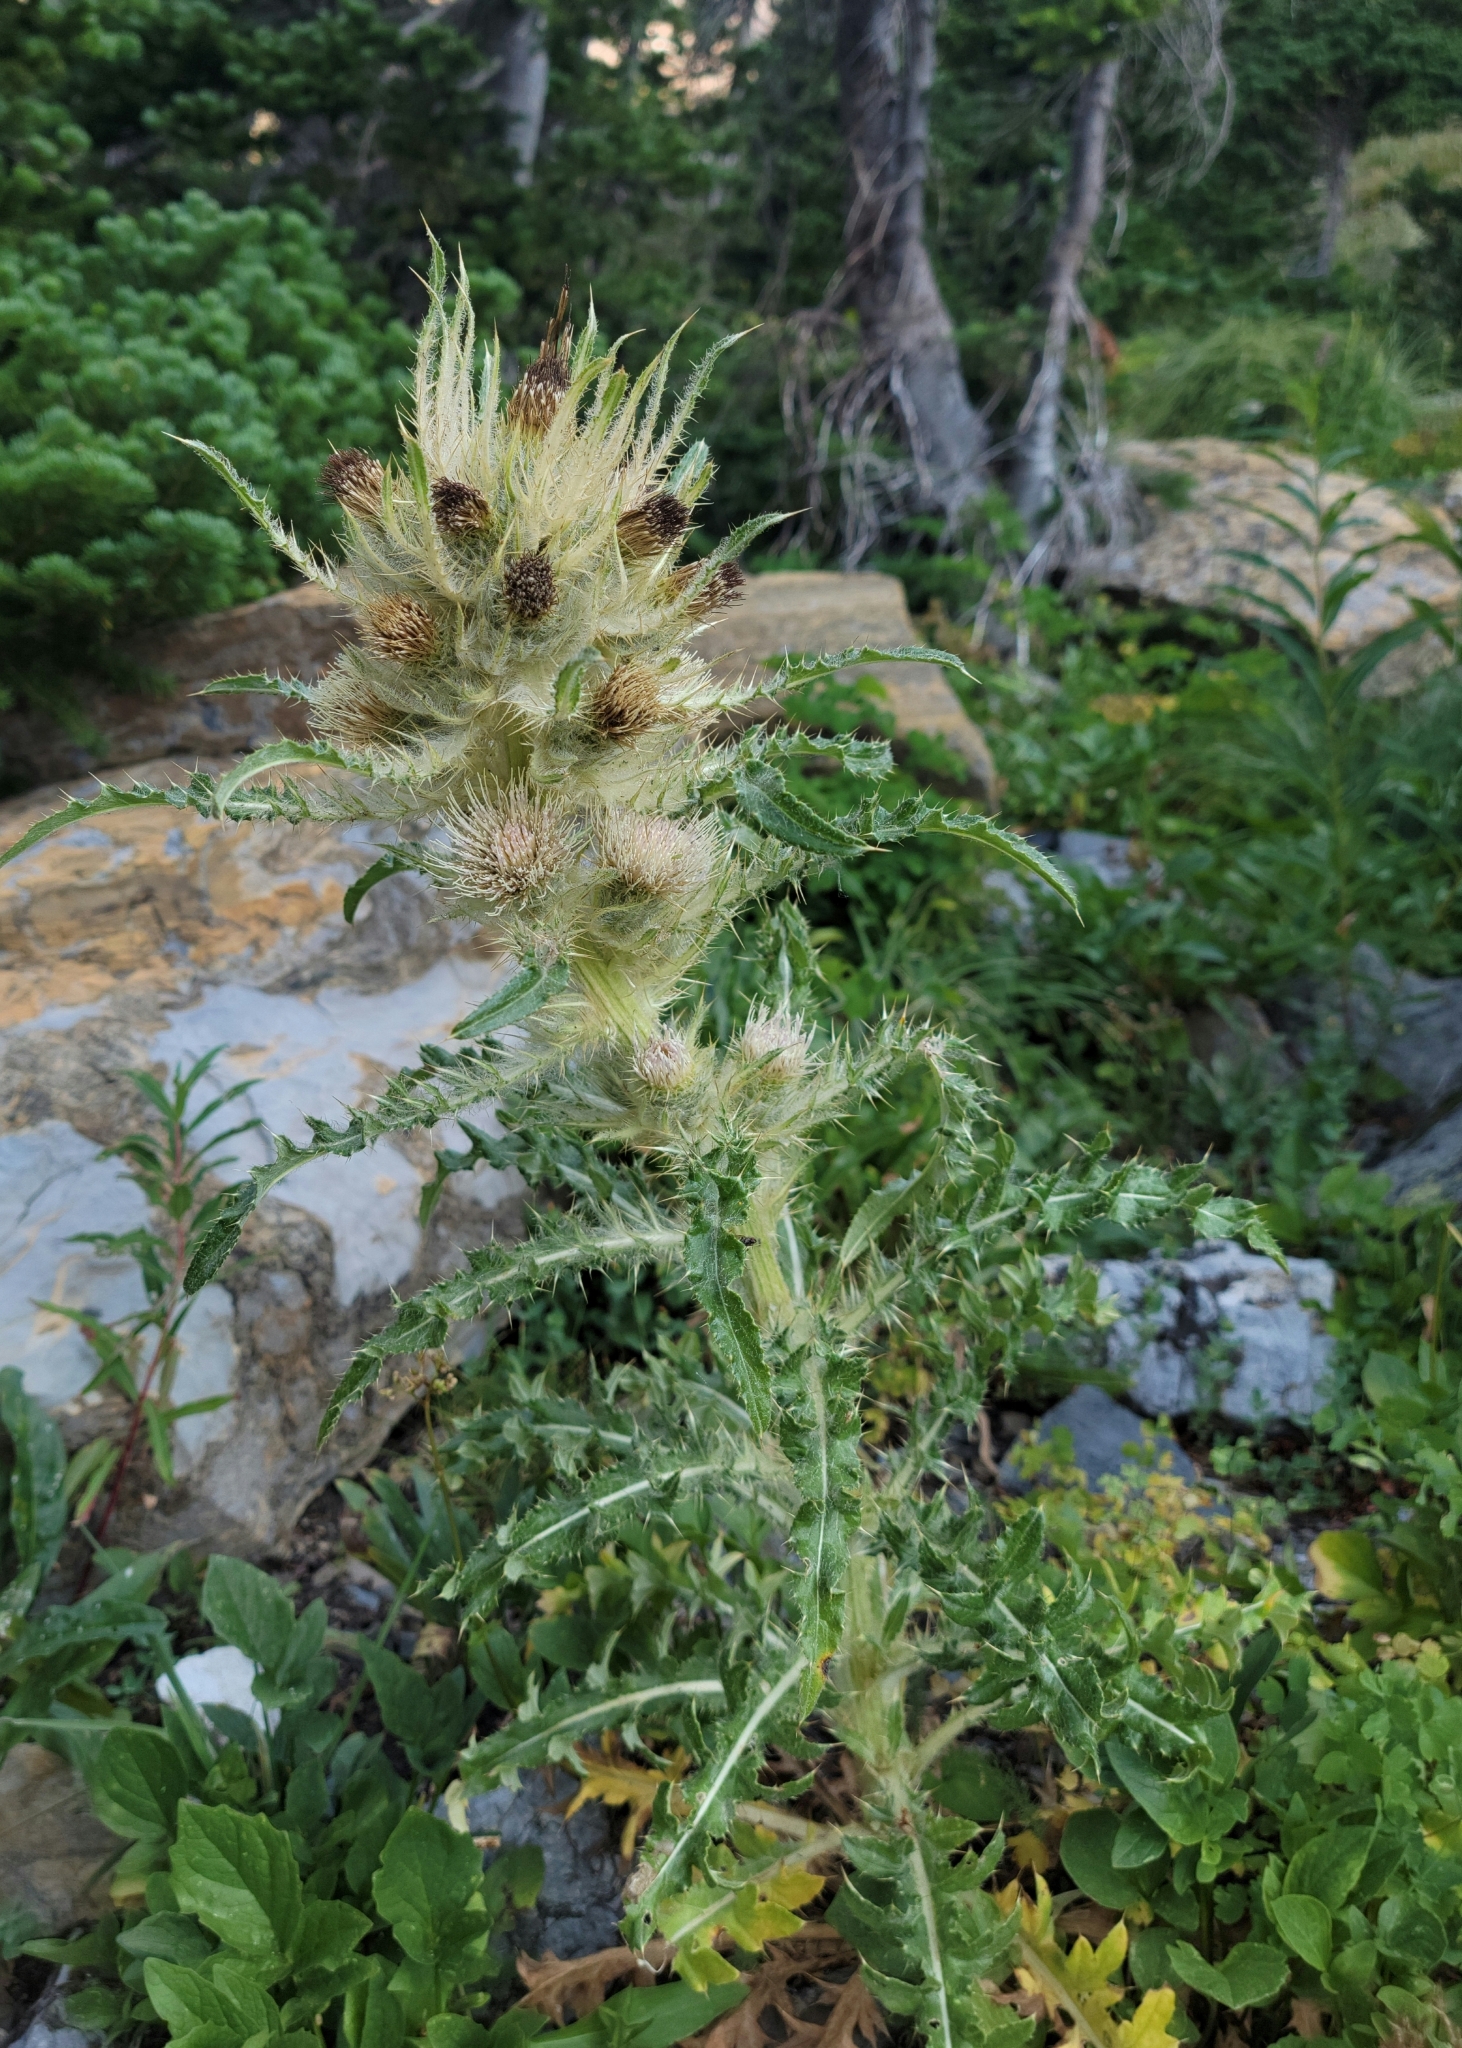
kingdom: Plantae
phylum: Tracheophyta
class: Magnoliopsida
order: Asterales
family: Asteraceae
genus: Cirsium
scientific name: Cirsium hookerianum
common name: Hooker's thistle
